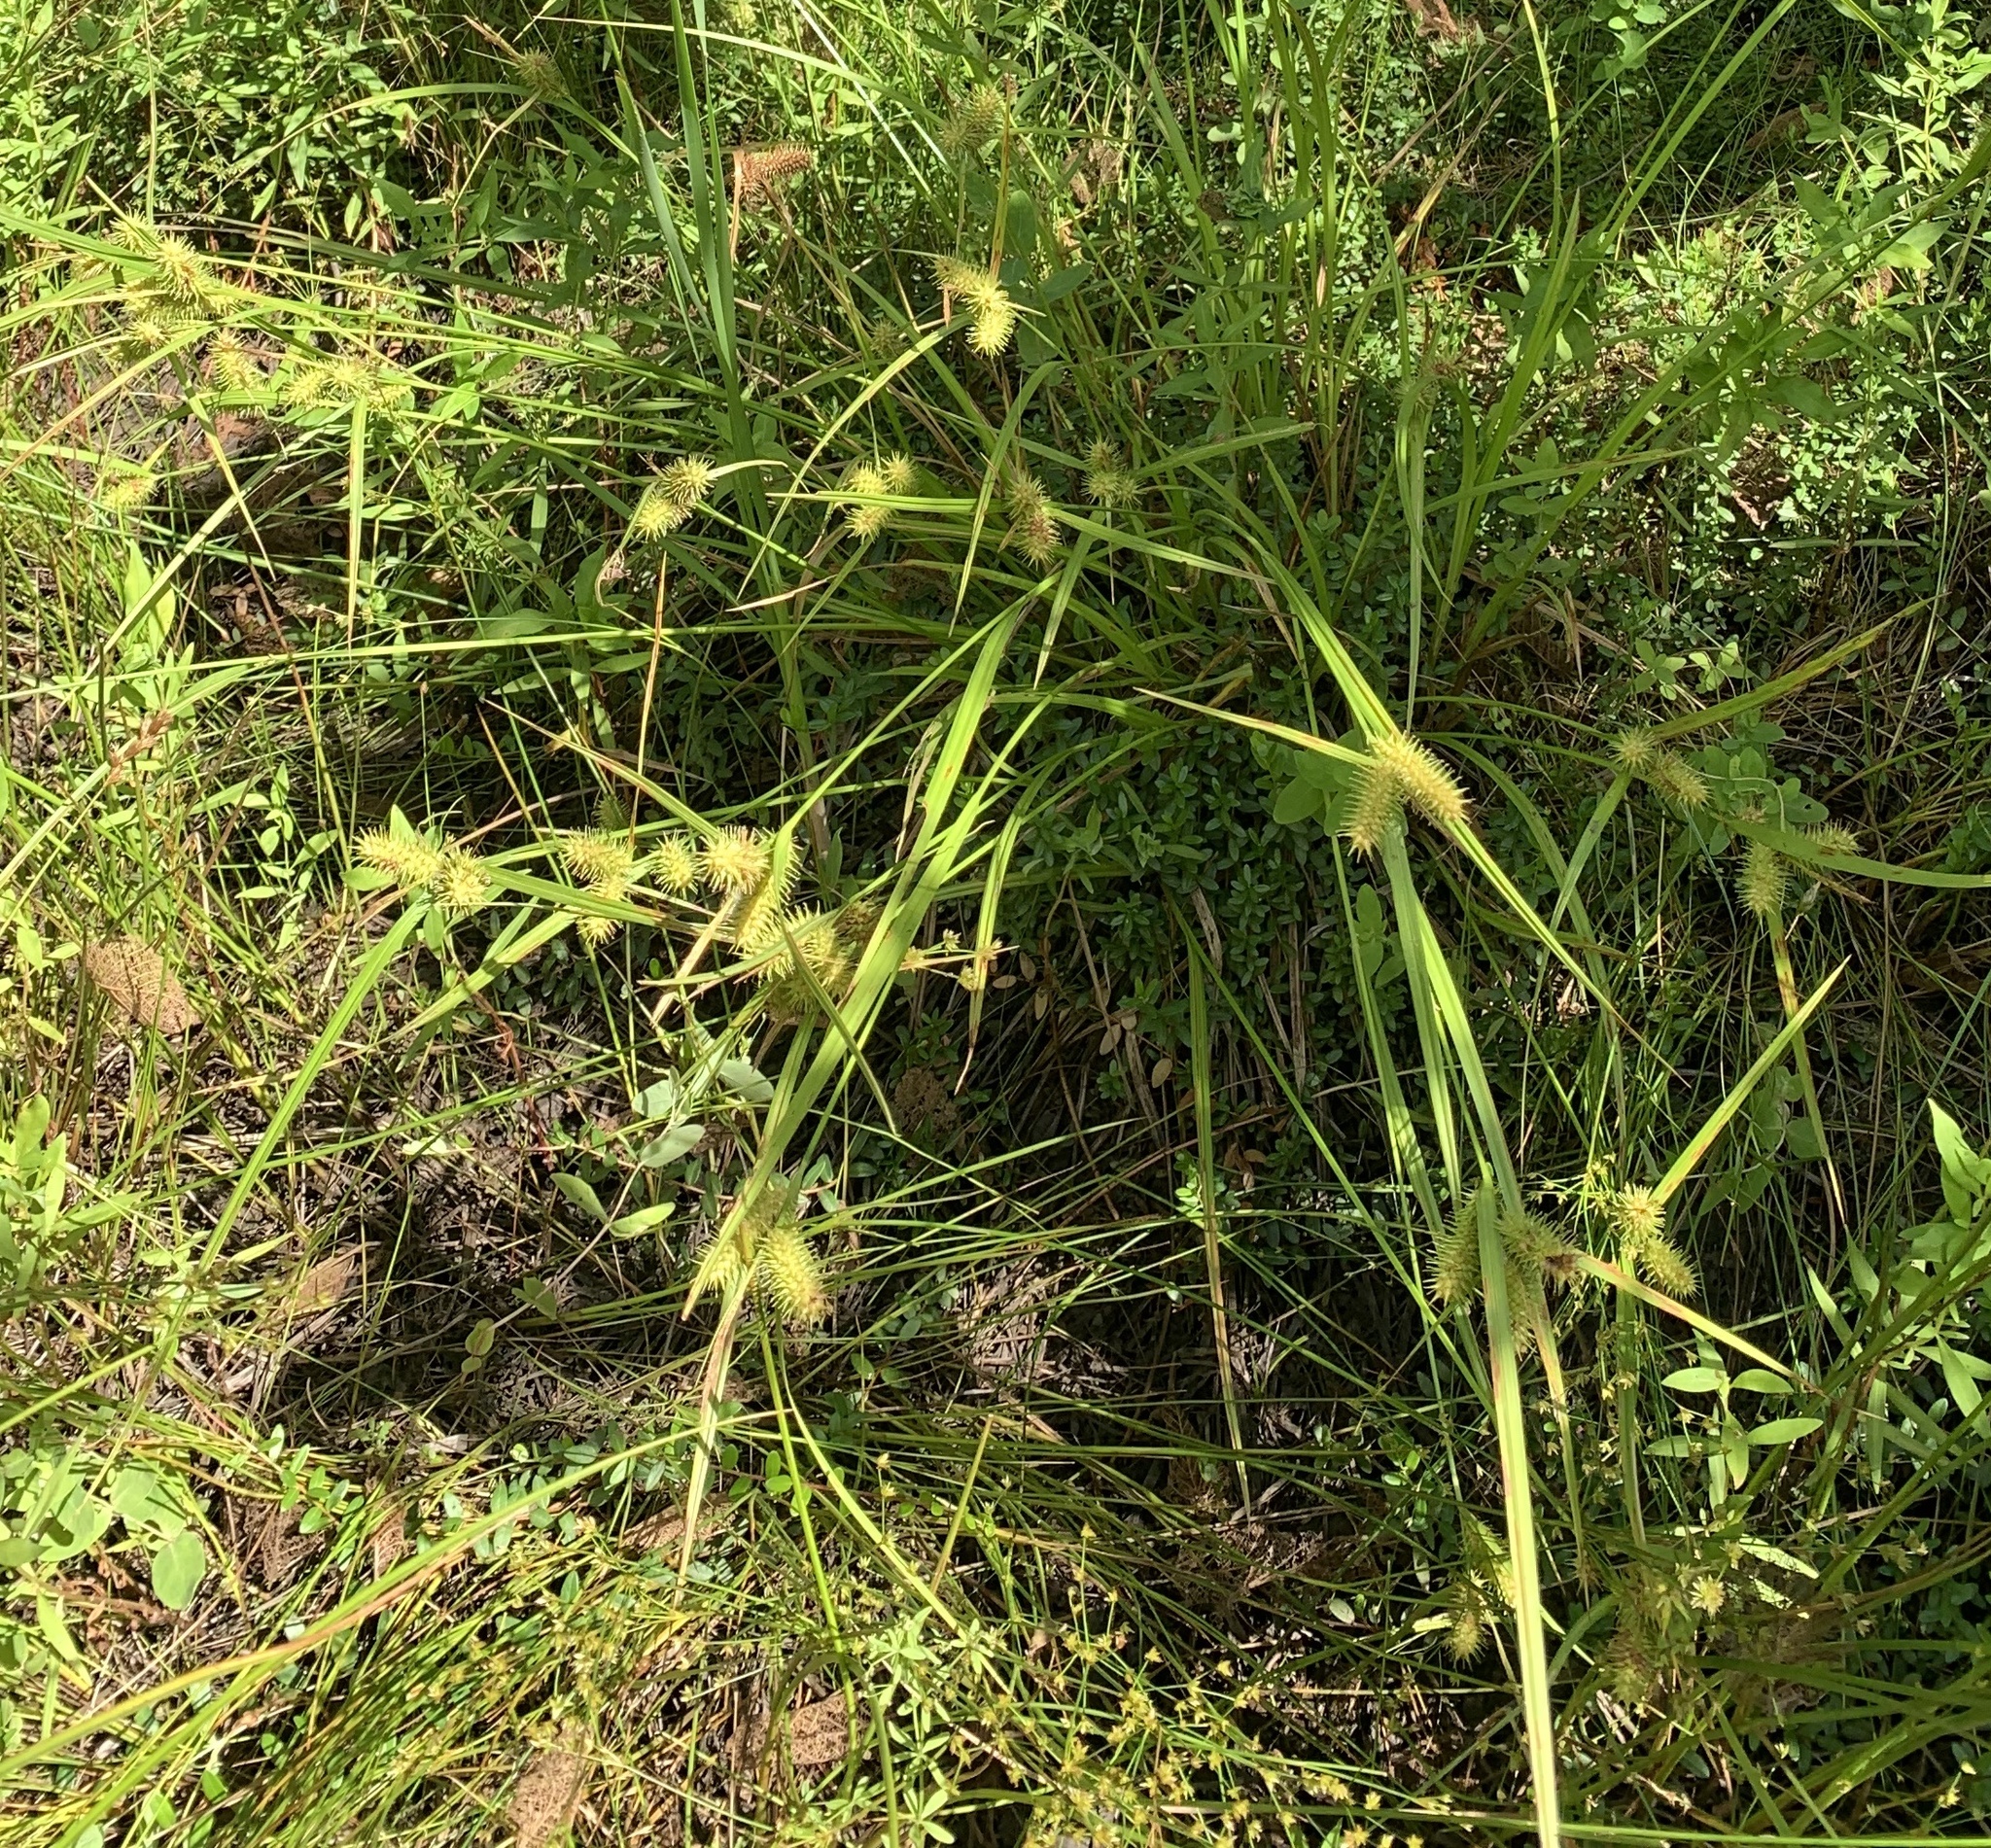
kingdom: Plantae
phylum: Tracheophyta
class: Liliopsida
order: Poales
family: Cyperaceae
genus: Carex
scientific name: Carex lurida
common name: Sallow sedge
